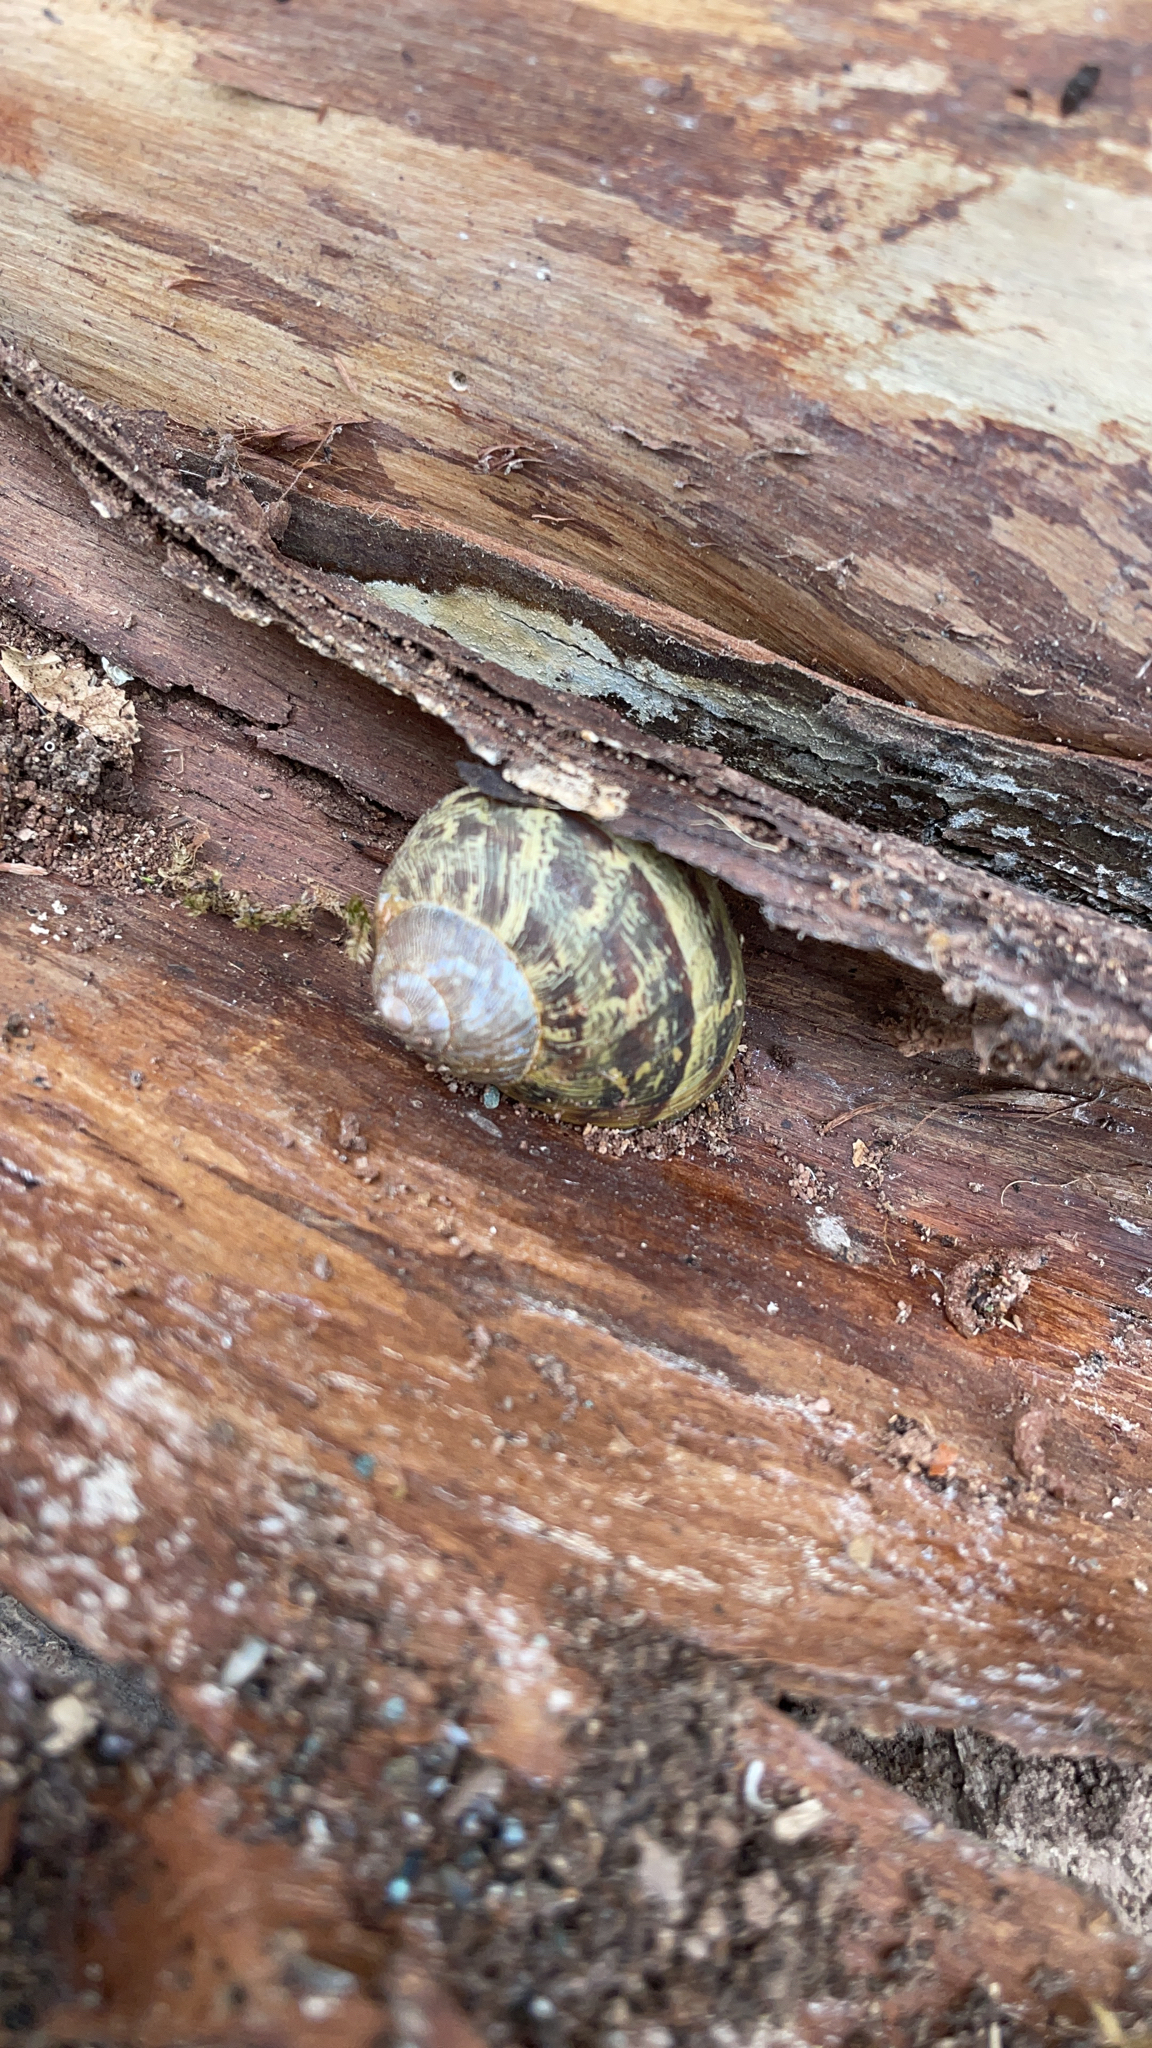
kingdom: Animalia
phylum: Mollusca
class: Gastropoda
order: Stylommatophora
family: Helicidae
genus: Cornu
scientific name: Cornu aspersum
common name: Brown garden snail
